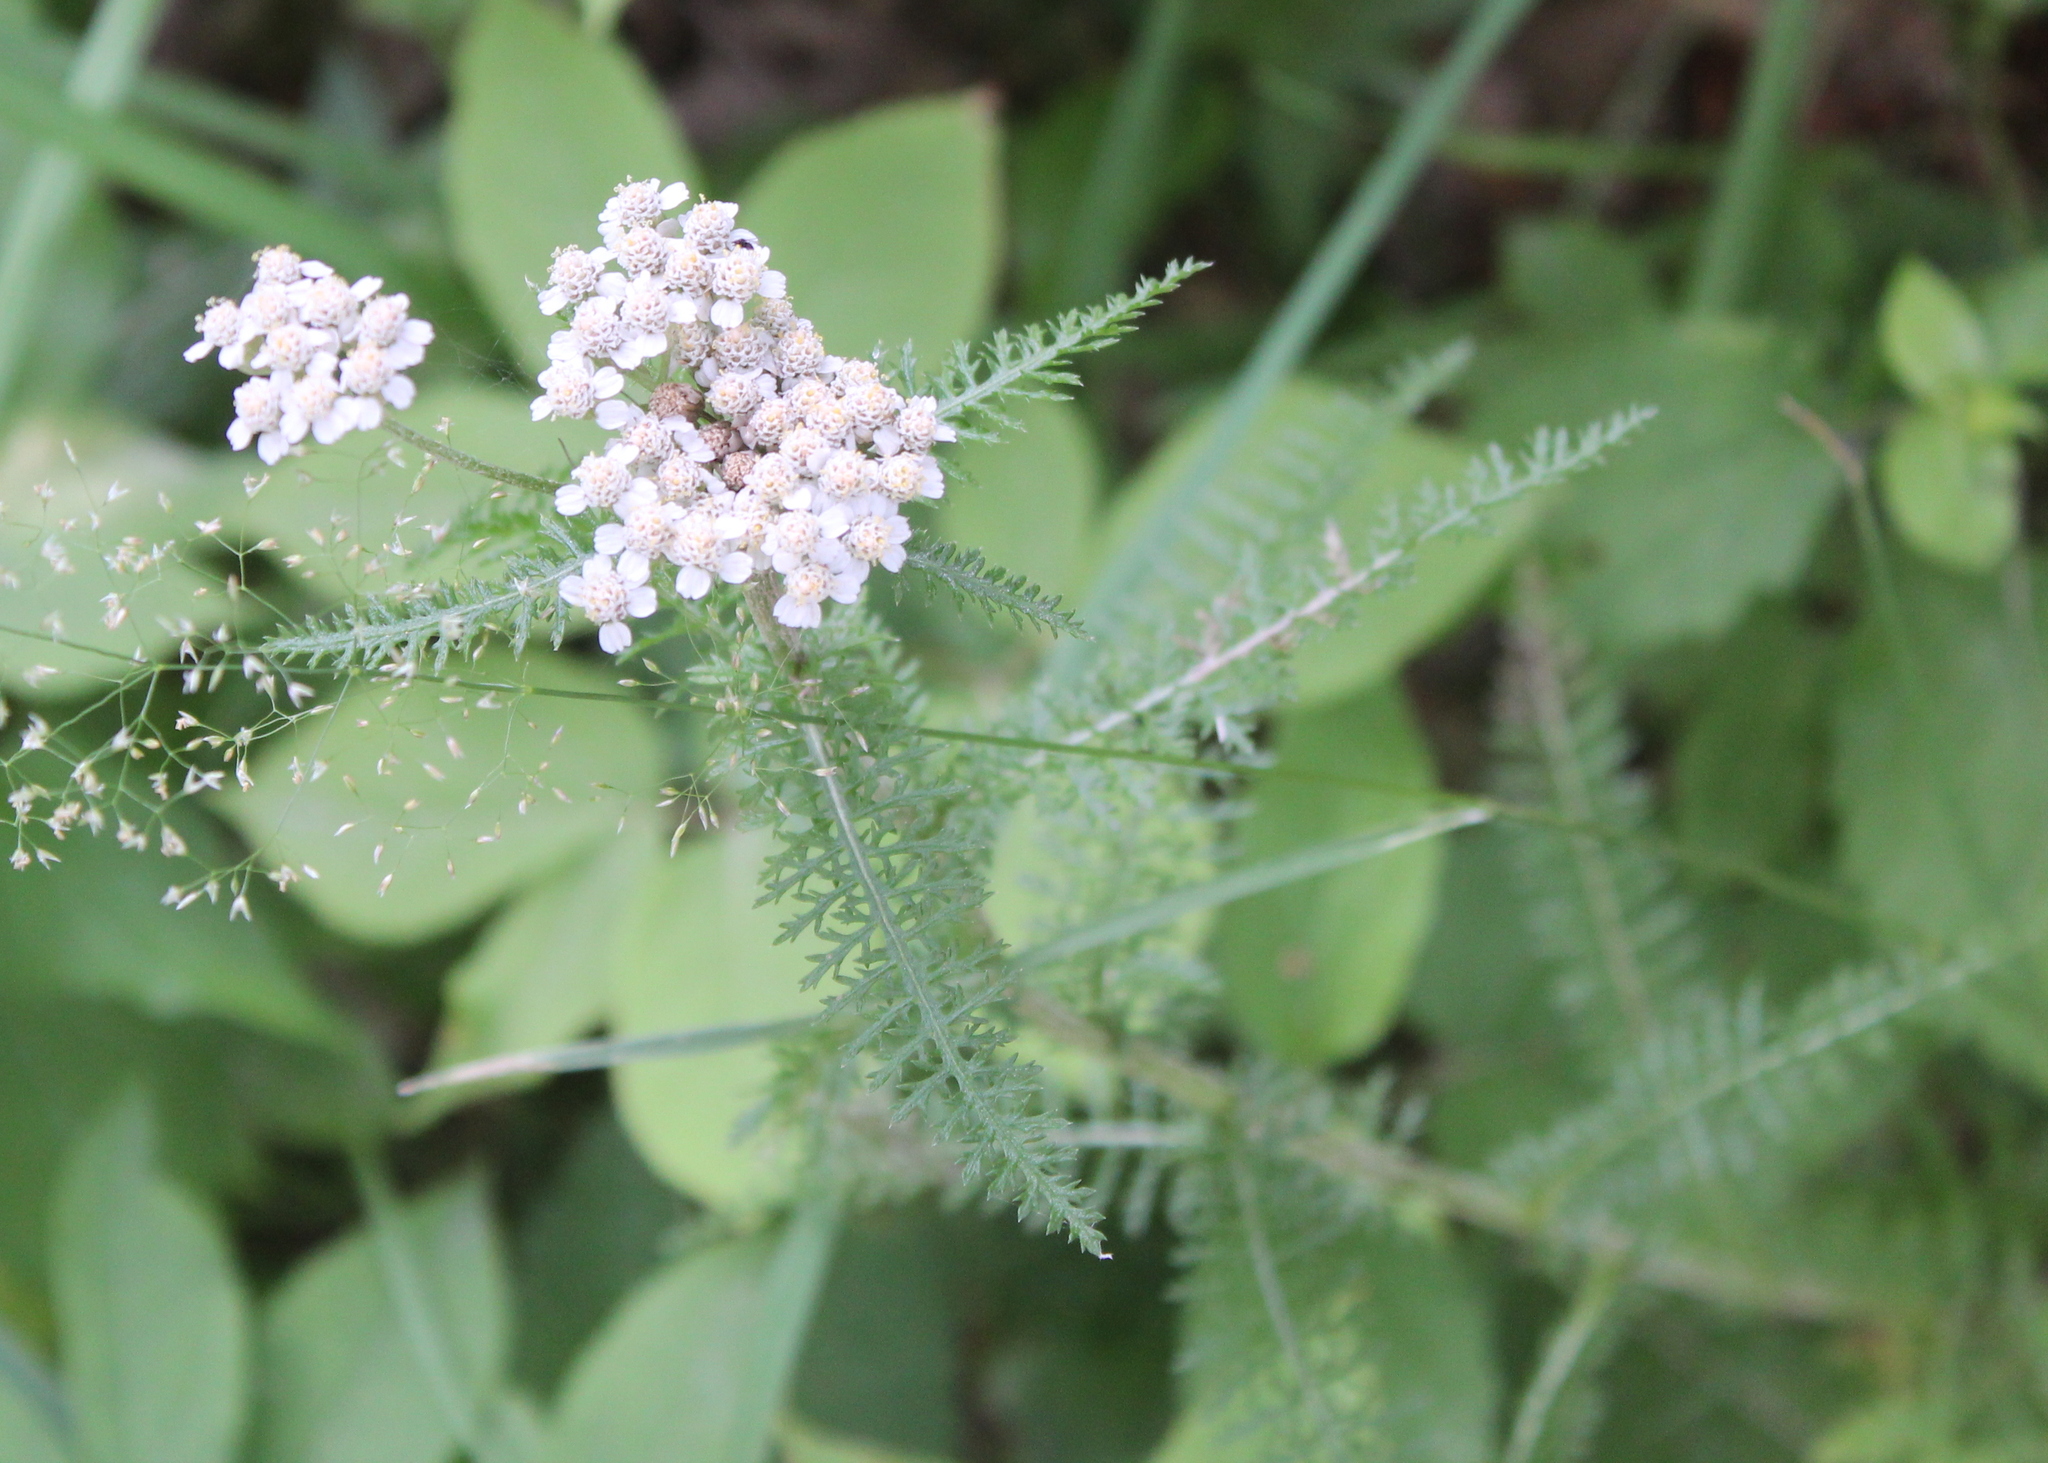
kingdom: Plantae
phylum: Tracheophyta
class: Magnoliopsida
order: Asterales
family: Asteraceae
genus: Achillea
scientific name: Achillea millefolium
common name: Yarrow
